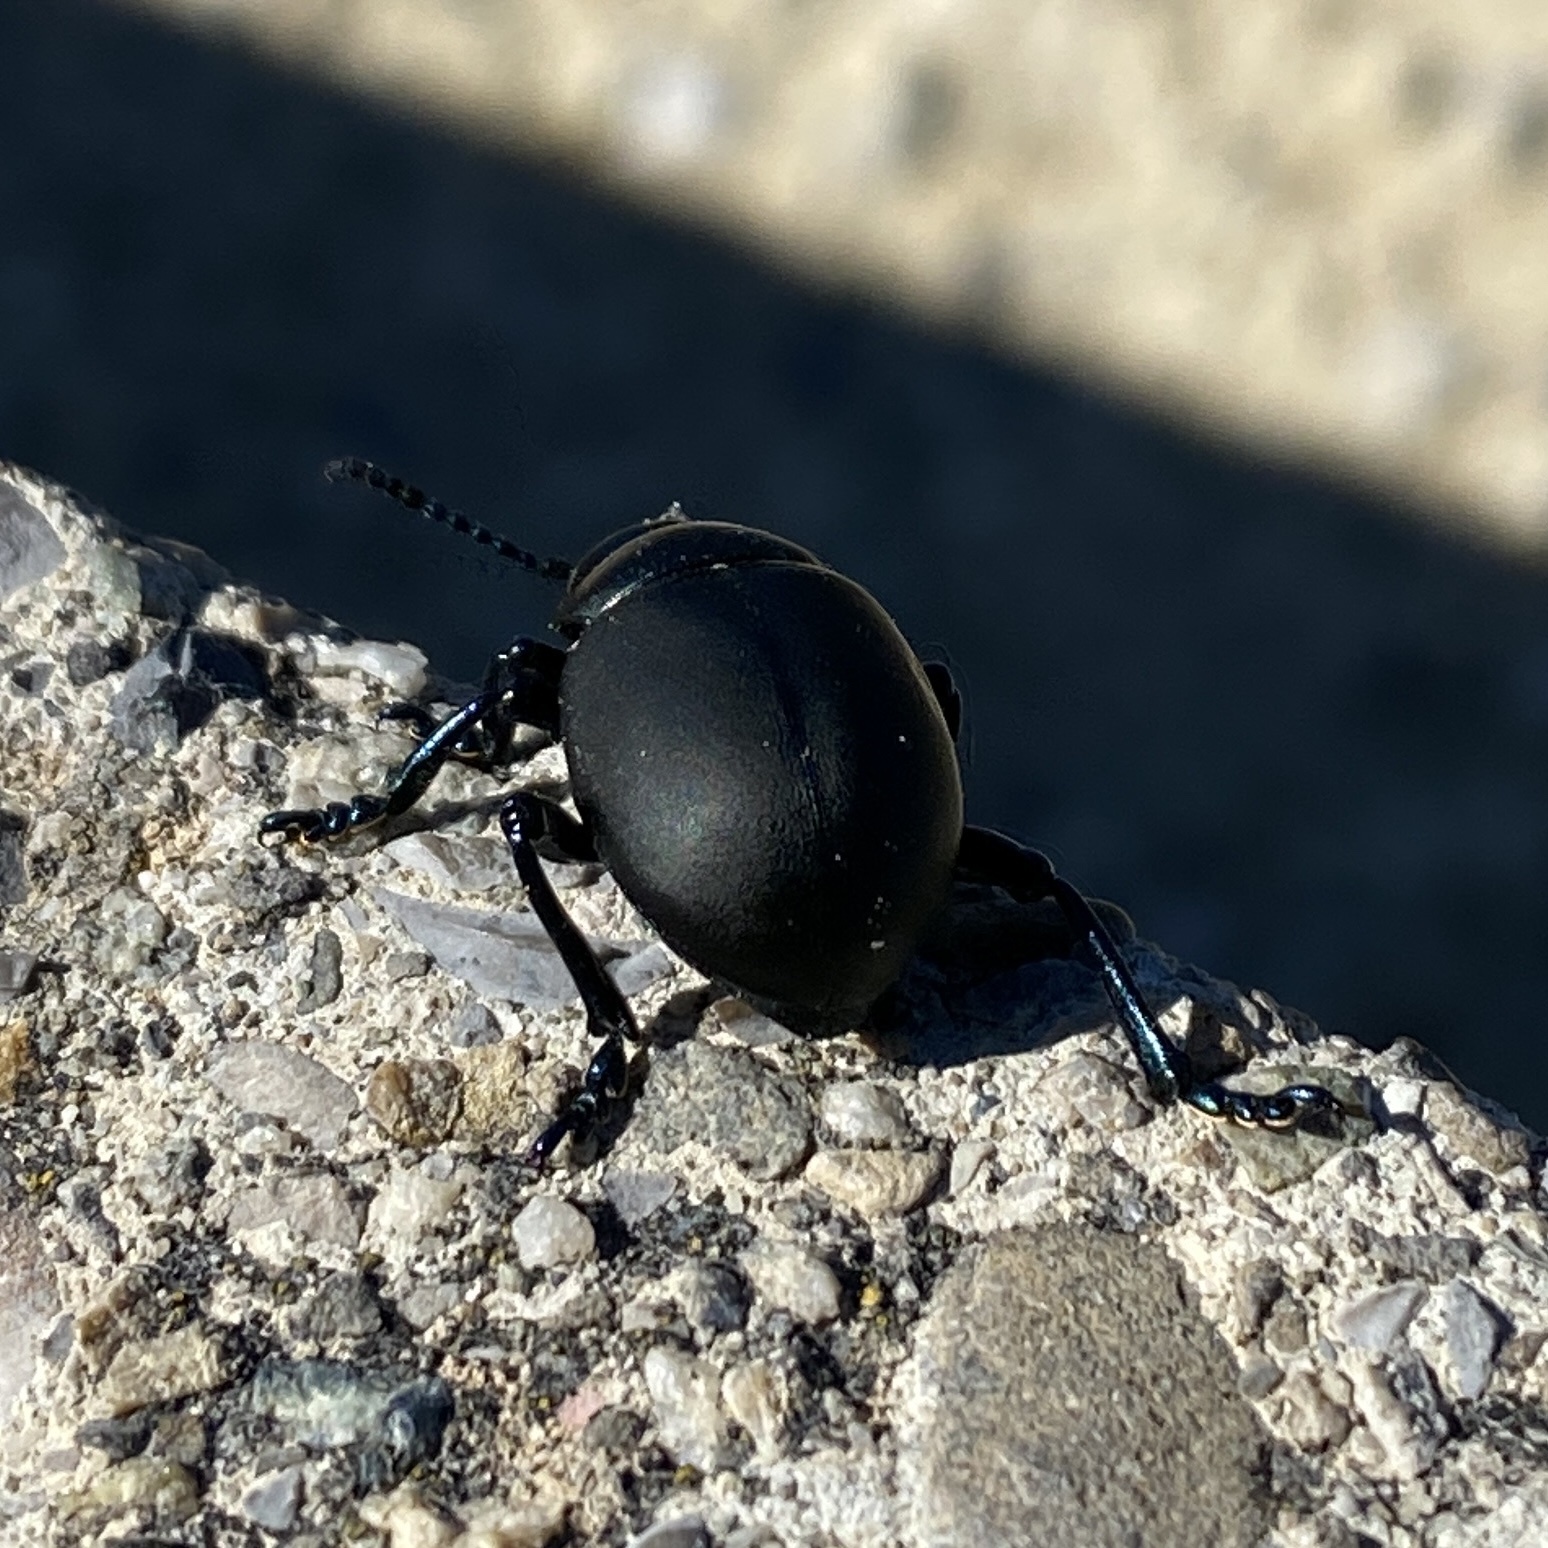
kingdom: Animalia
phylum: Arthropoda
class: Insecta
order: Coleoptera
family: Chrysomelidae
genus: Timarcha
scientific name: Timarcha nicaeensis
